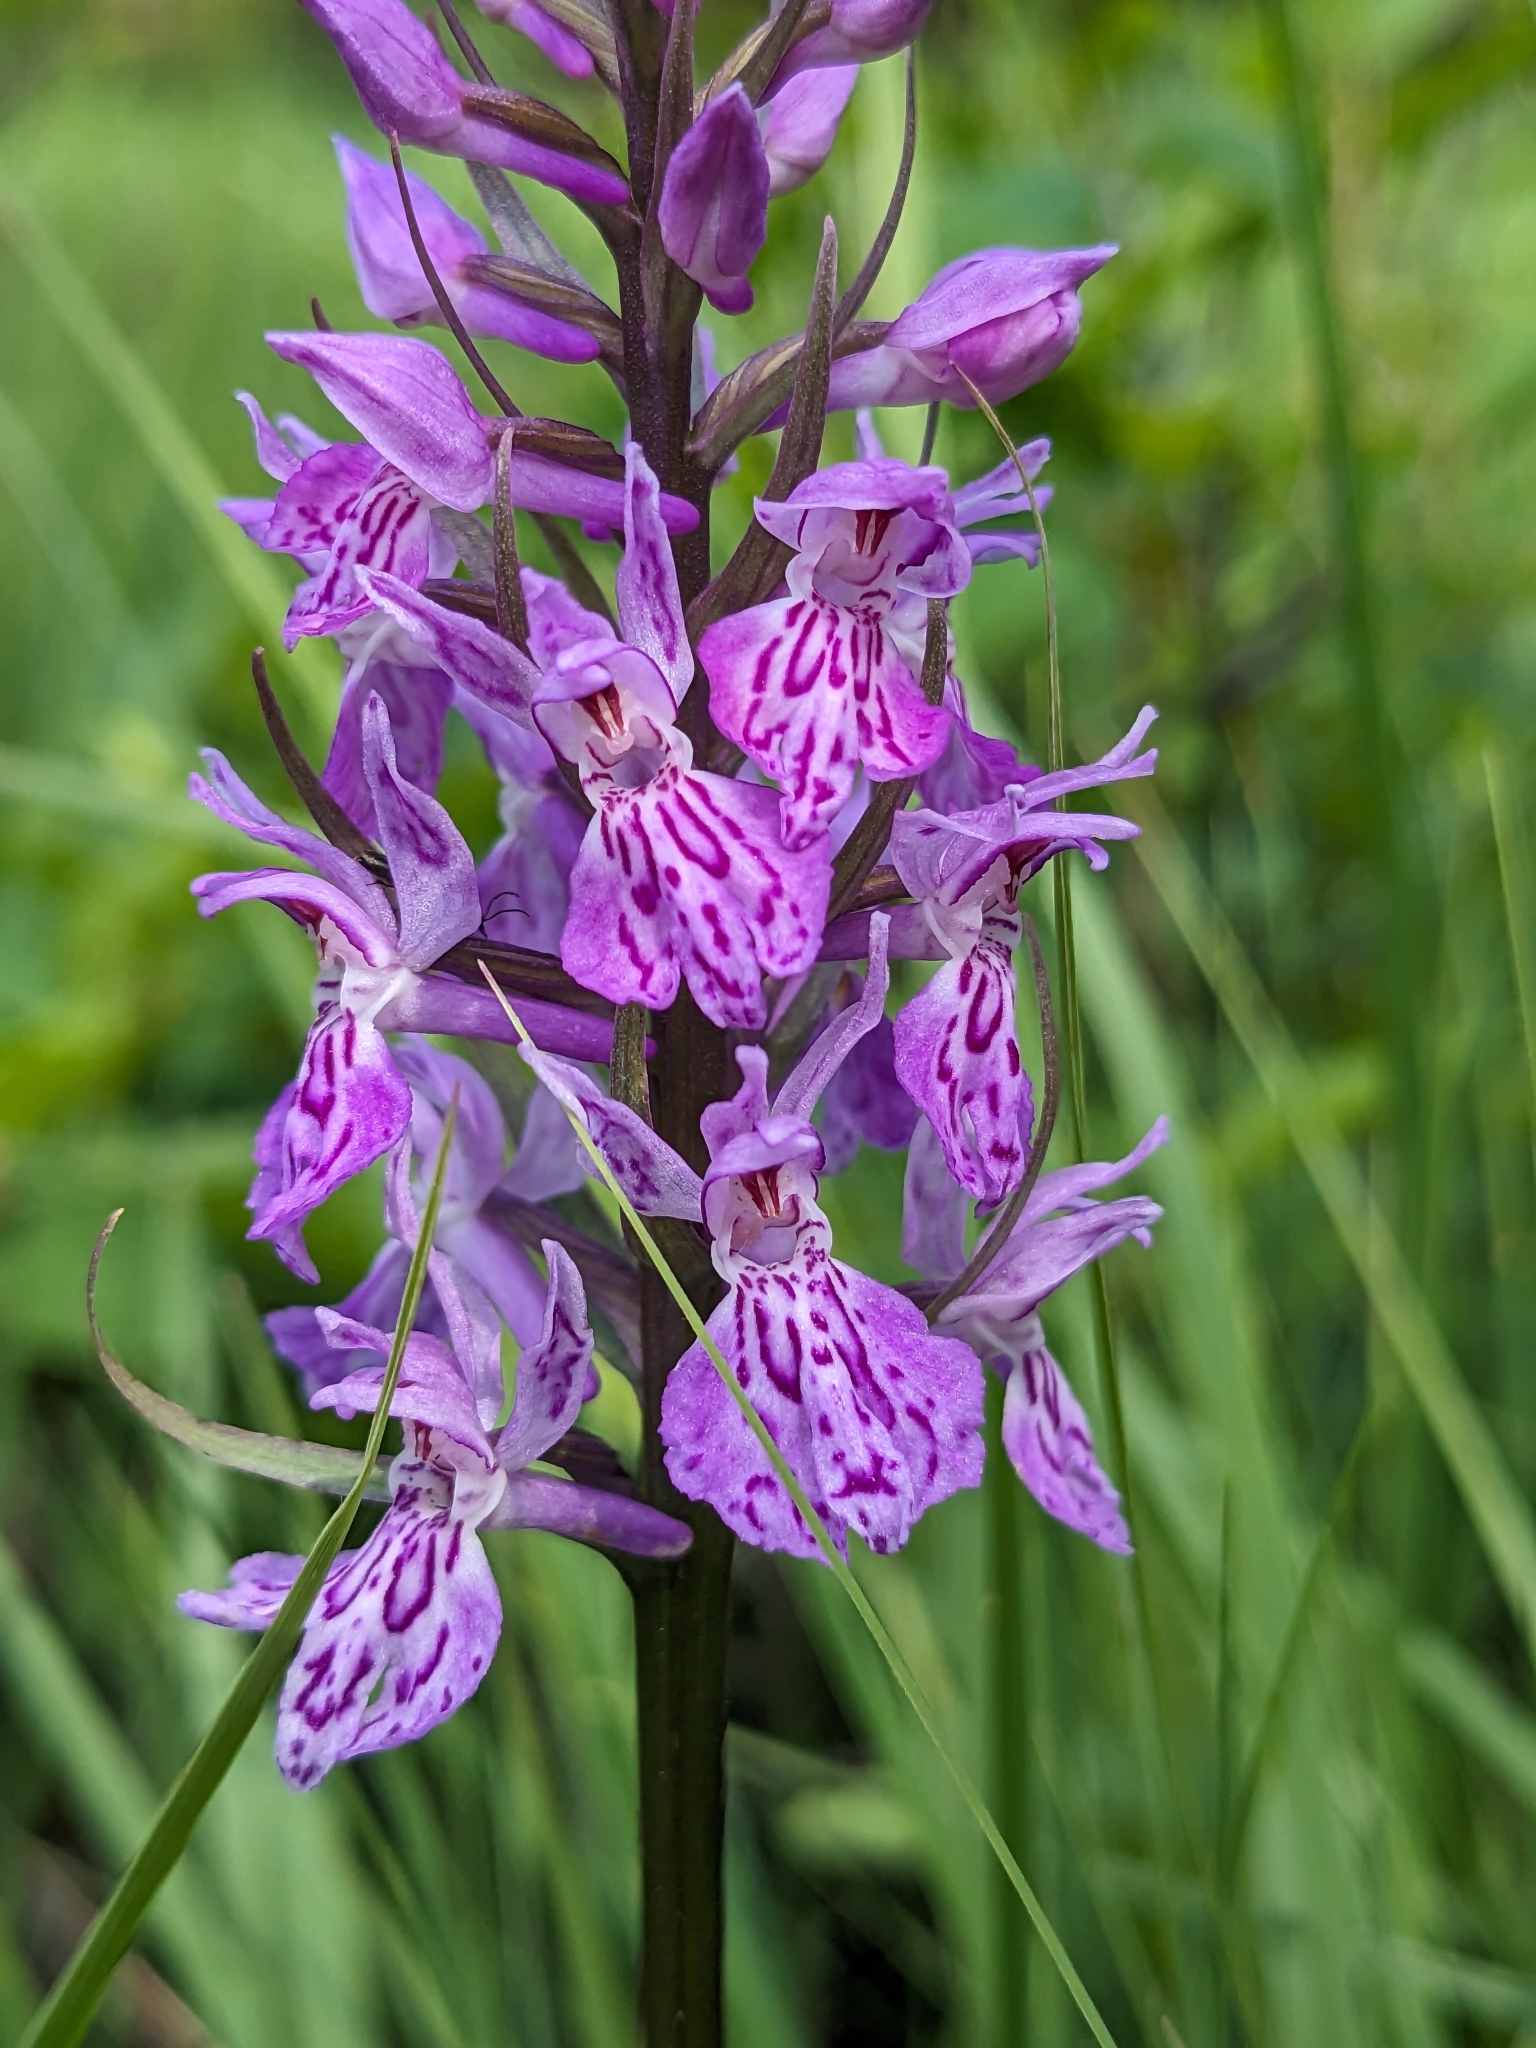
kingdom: Plantae
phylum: Tracheophyta
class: Liliopsida
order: Asparagales
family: Orchidaceae
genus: Dactylorhiza
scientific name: Dactylorhiza maculata
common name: Heath spotted-orchid
